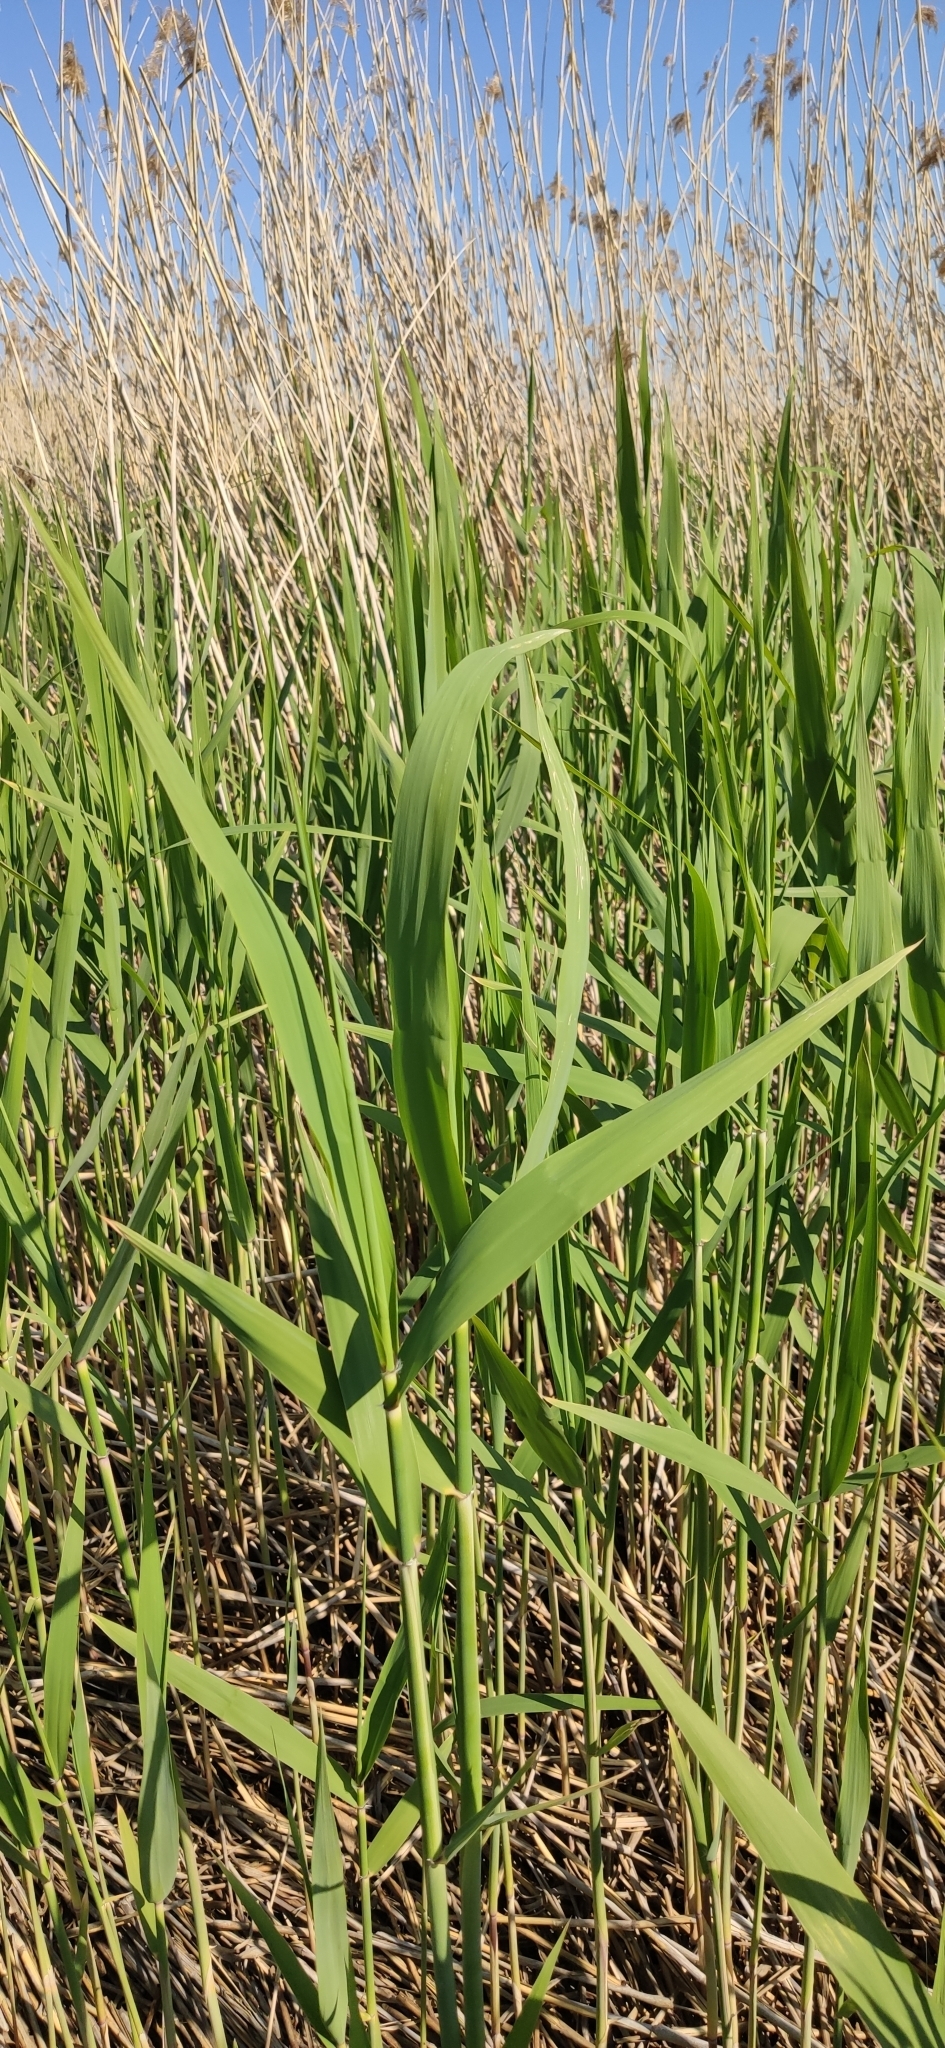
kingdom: Plantae
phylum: Tracheophyta
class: Liliopsida
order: Poales
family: Poaceae
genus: Phragmites
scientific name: Phragmites australis
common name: Common reed
